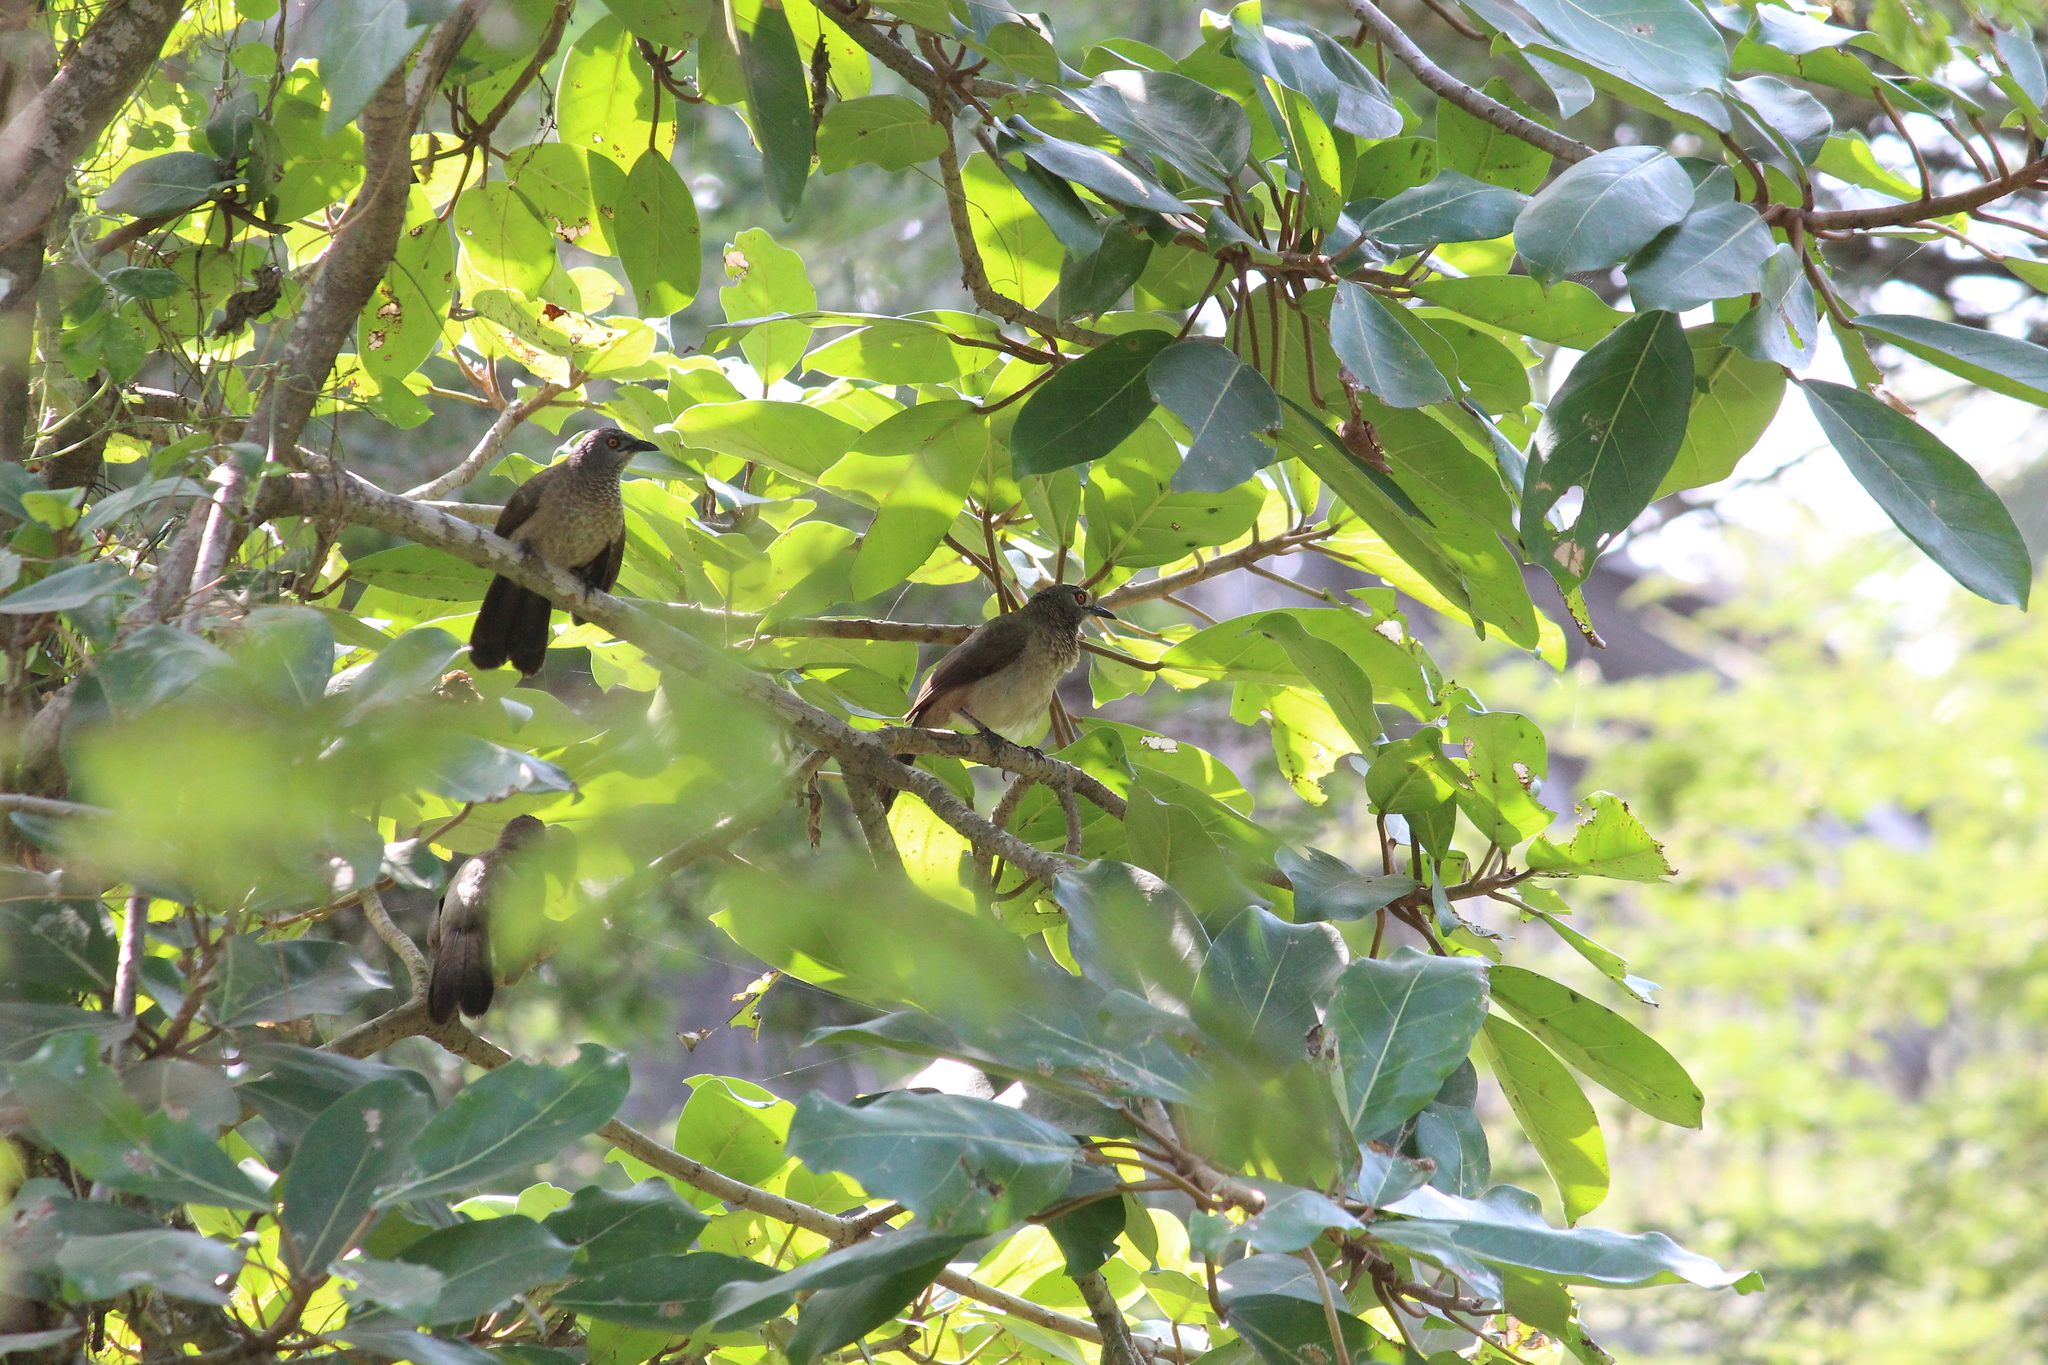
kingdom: Animalia
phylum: Chordata
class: Aves
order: Passeriformes
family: Leiothrichidae
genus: Turdoides
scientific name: Turdoides plebejus
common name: Brown babbler
